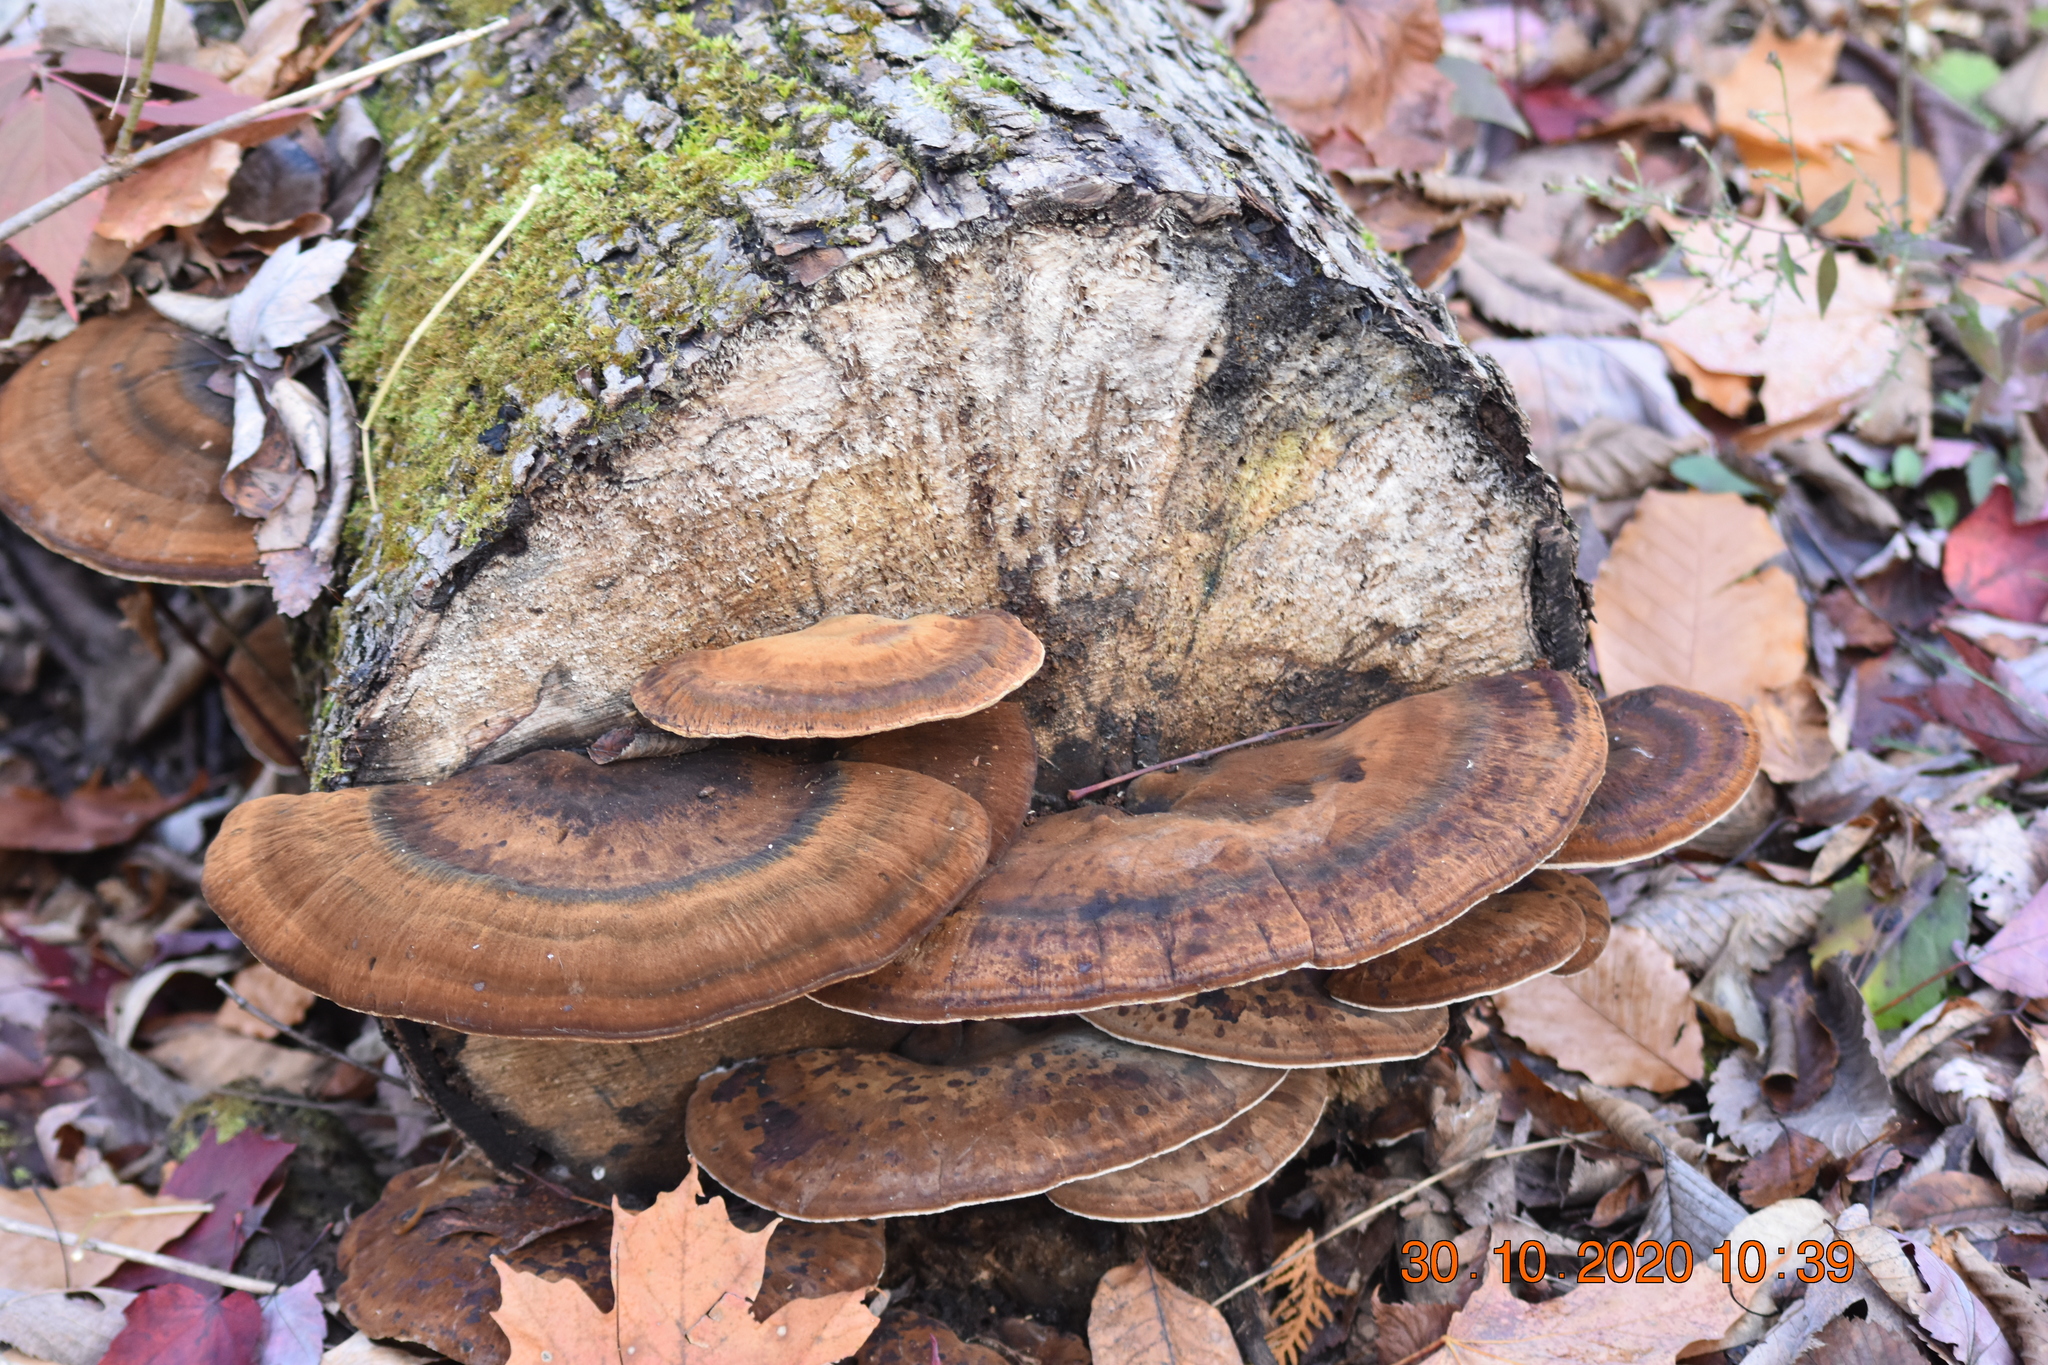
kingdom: Fungi
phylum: Basidiomycota
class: Agaricomycetes
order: Polyporales
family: Ischnodermataceae
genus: Ischnoderma
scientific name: Ischnoderma resinosum
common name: Resinous polypore
